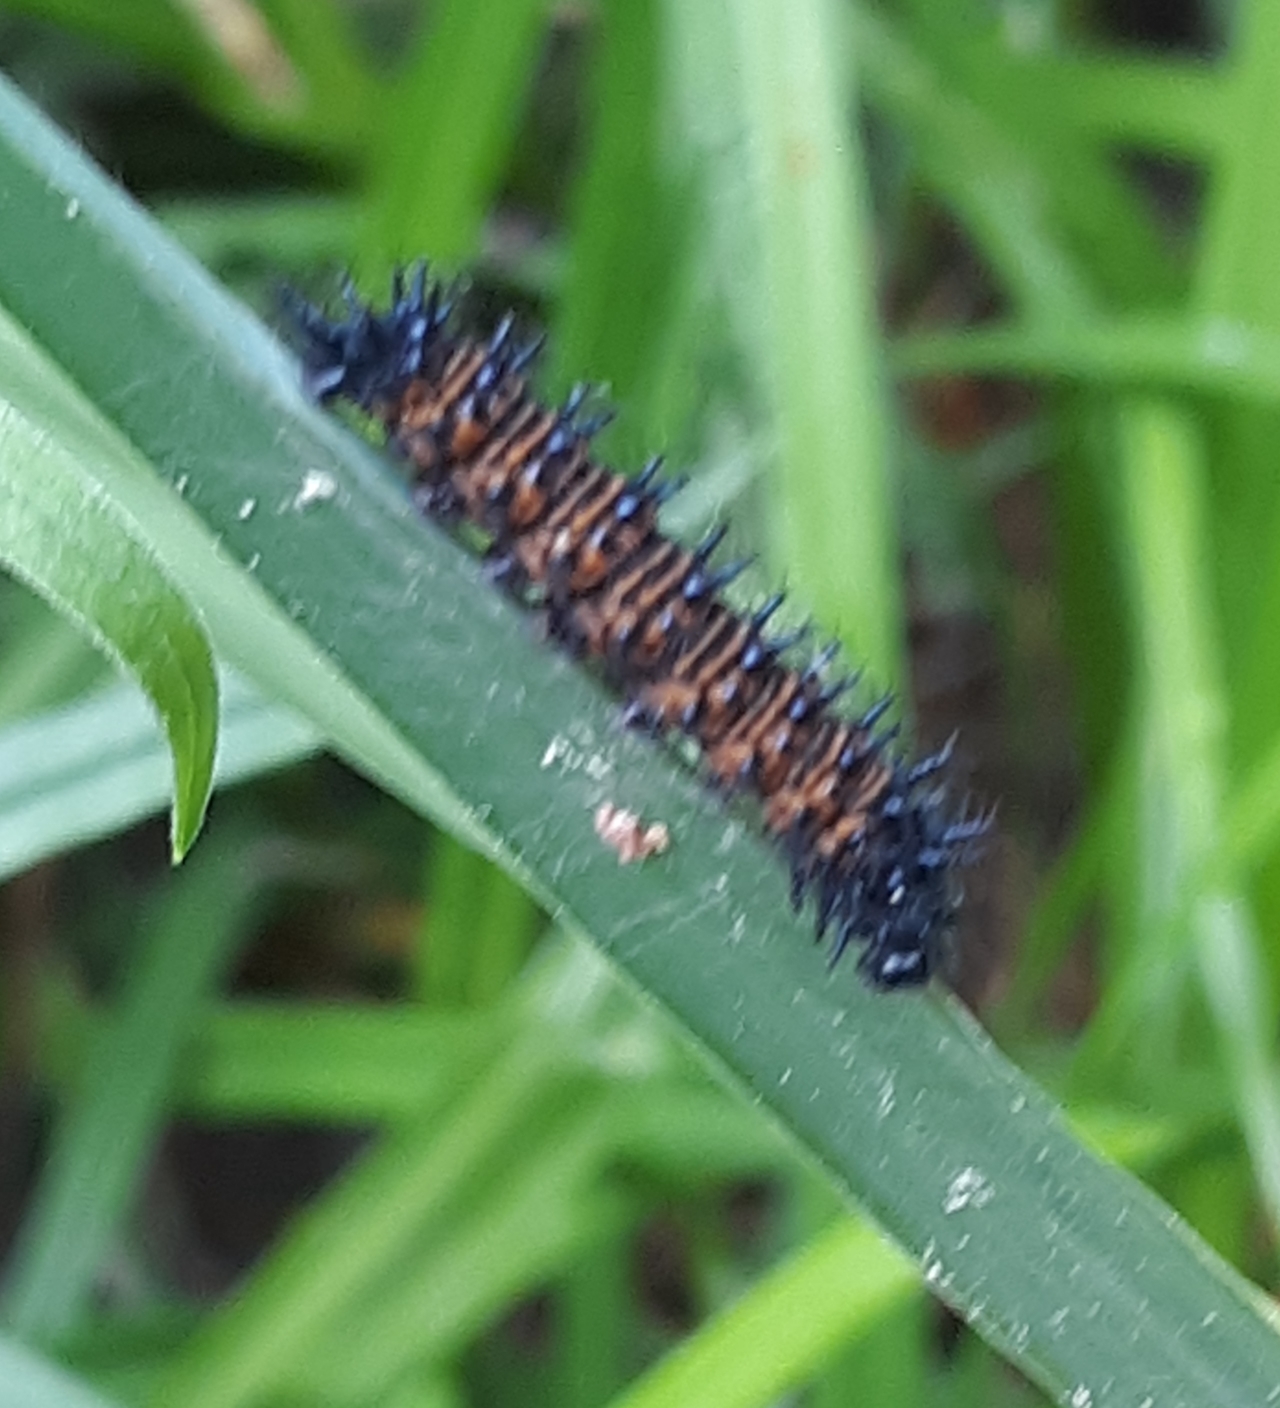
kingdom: Animalia
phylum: Arthropoda
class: Insecta
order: Lepidoptera
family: Nymphalidae
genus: Euphydryas
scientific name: Euphydryas phaeton
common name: Baltimore checkerspot
